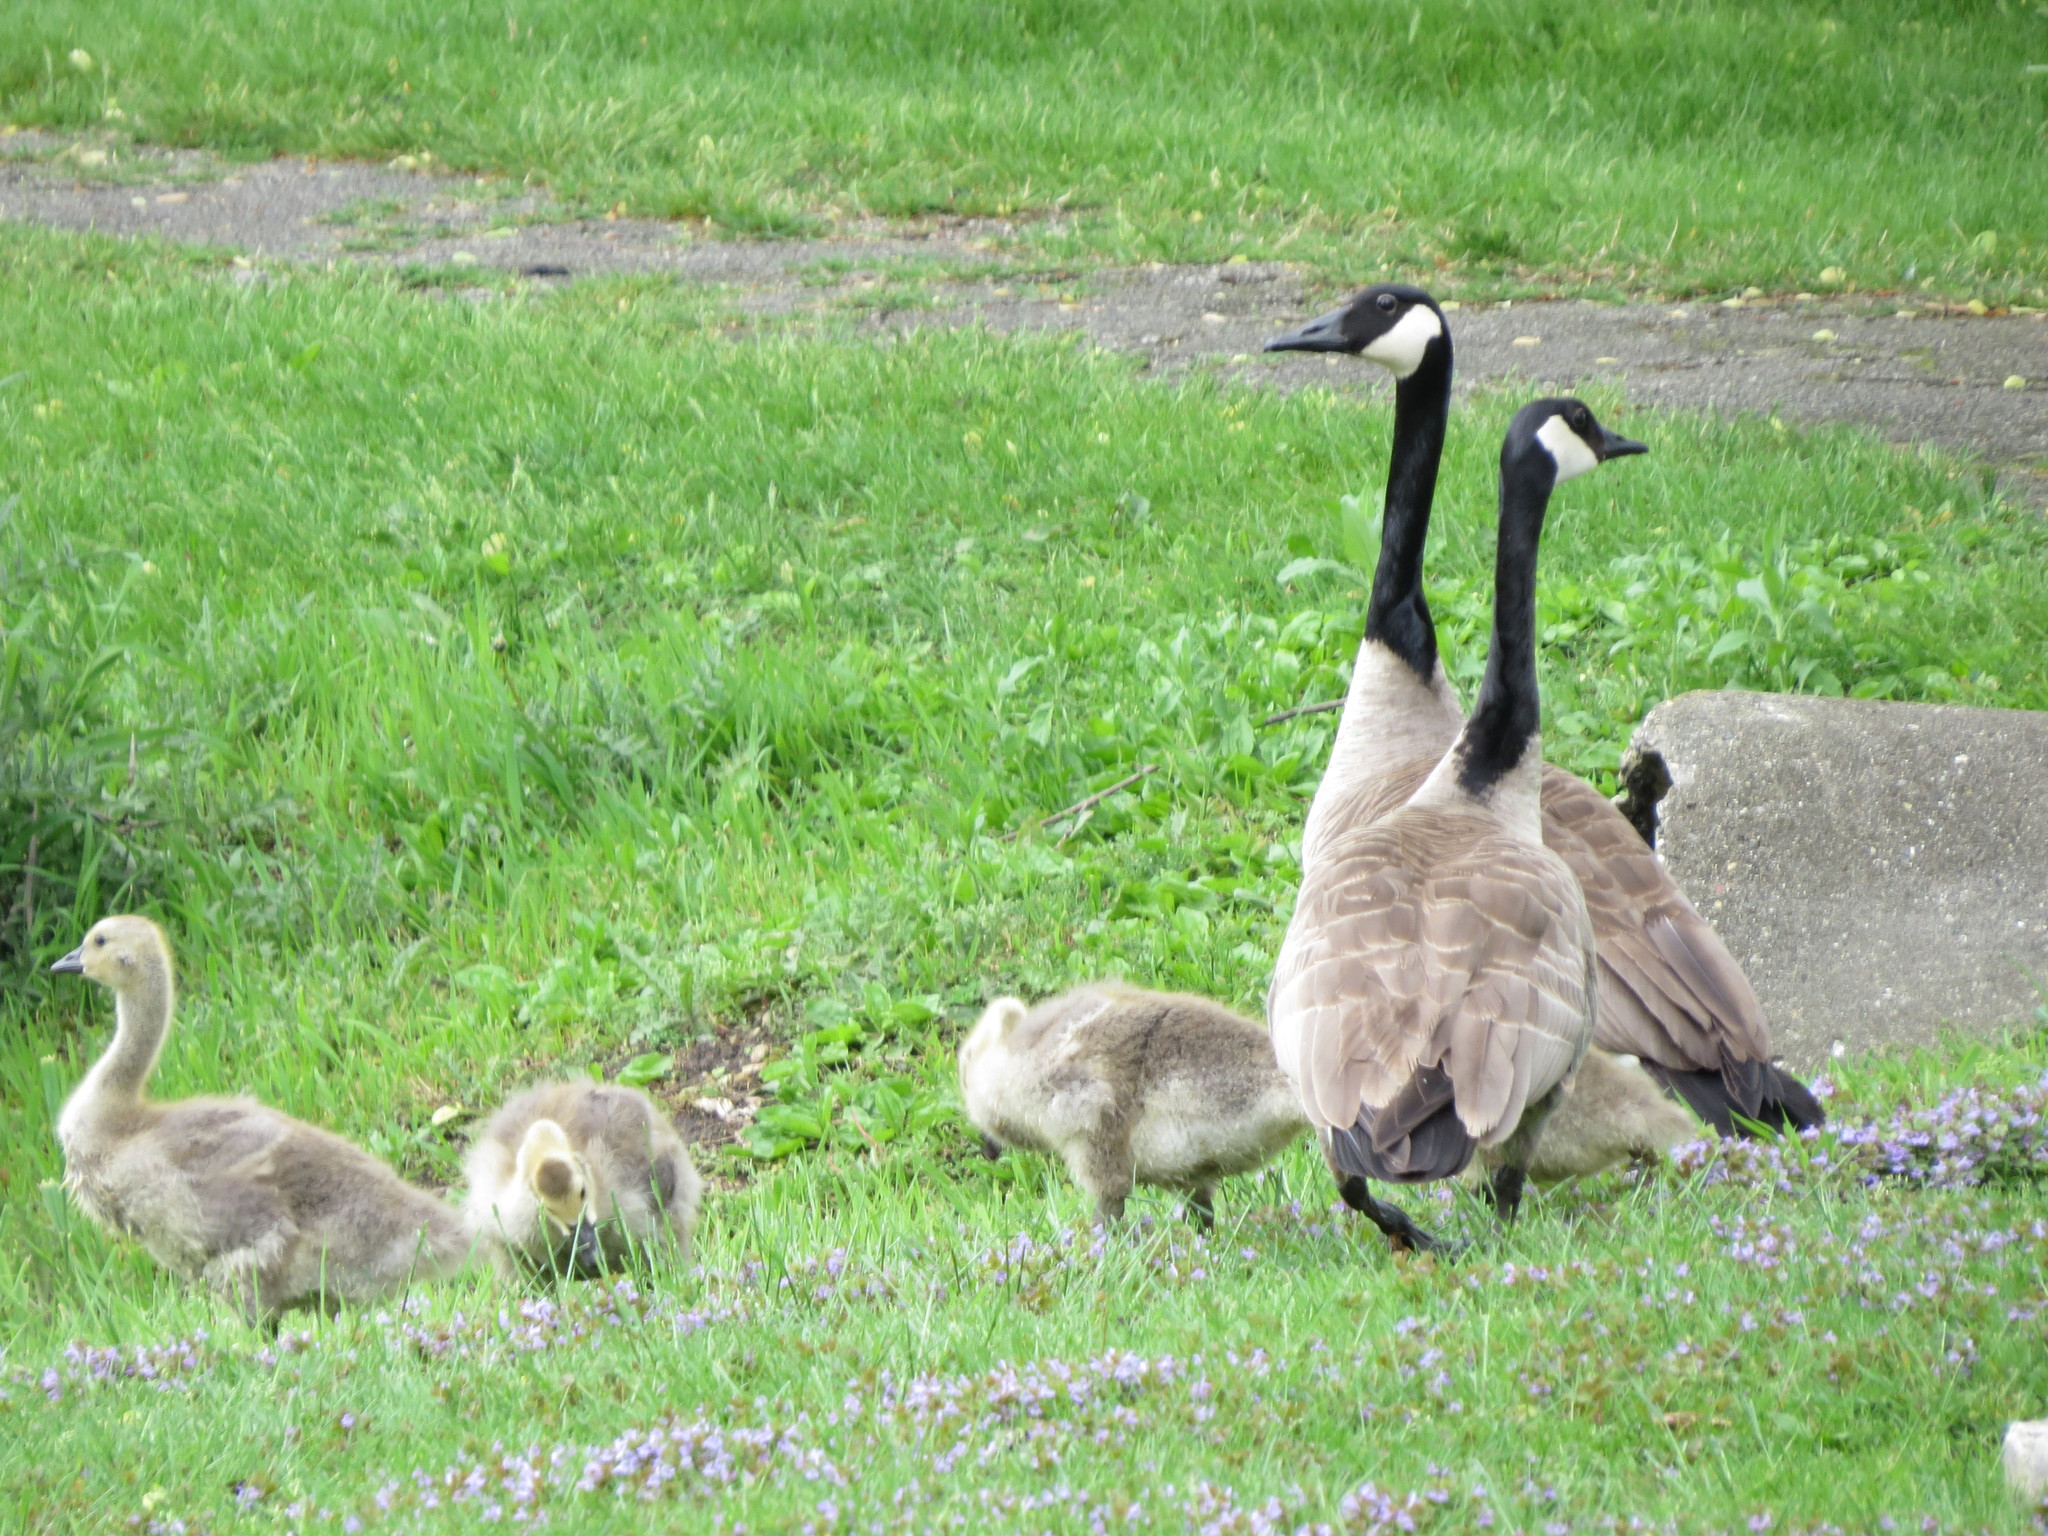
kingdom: Animalia
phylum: Chordata
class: Aves
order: Anseriformes
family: Anatidae
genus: Branta
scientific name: Branta canadensis
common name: Canada goose
